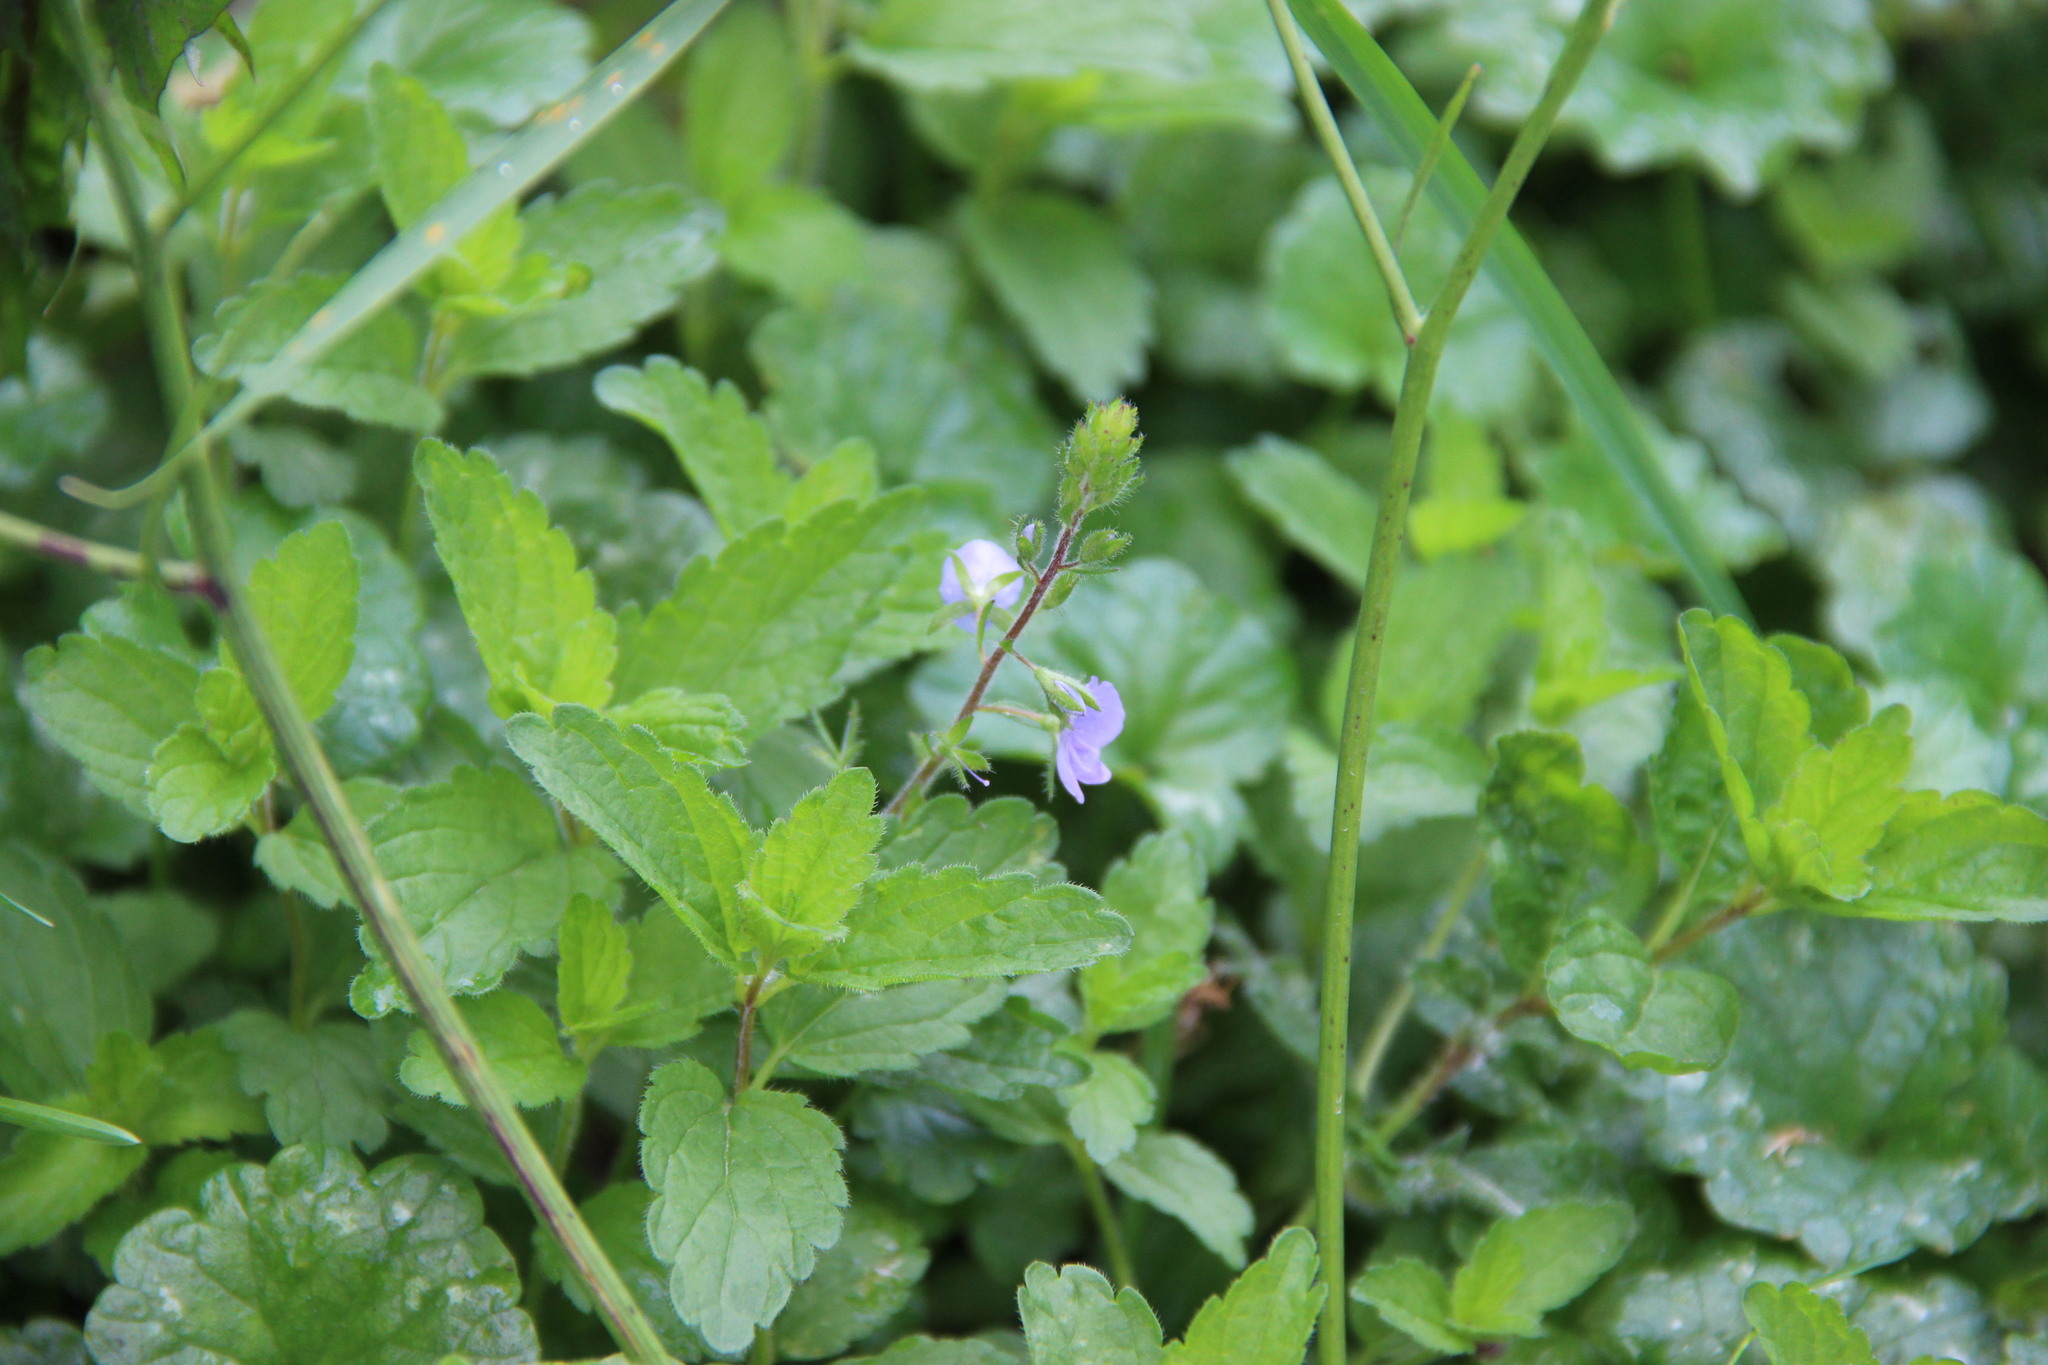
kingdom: Plantae
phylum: Tracheophyta
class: Magnoliopsida
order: Lamiales
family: Plantaginaceae
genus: Veronica
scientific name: Veronica chamaedrys
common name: Germander speedwell
